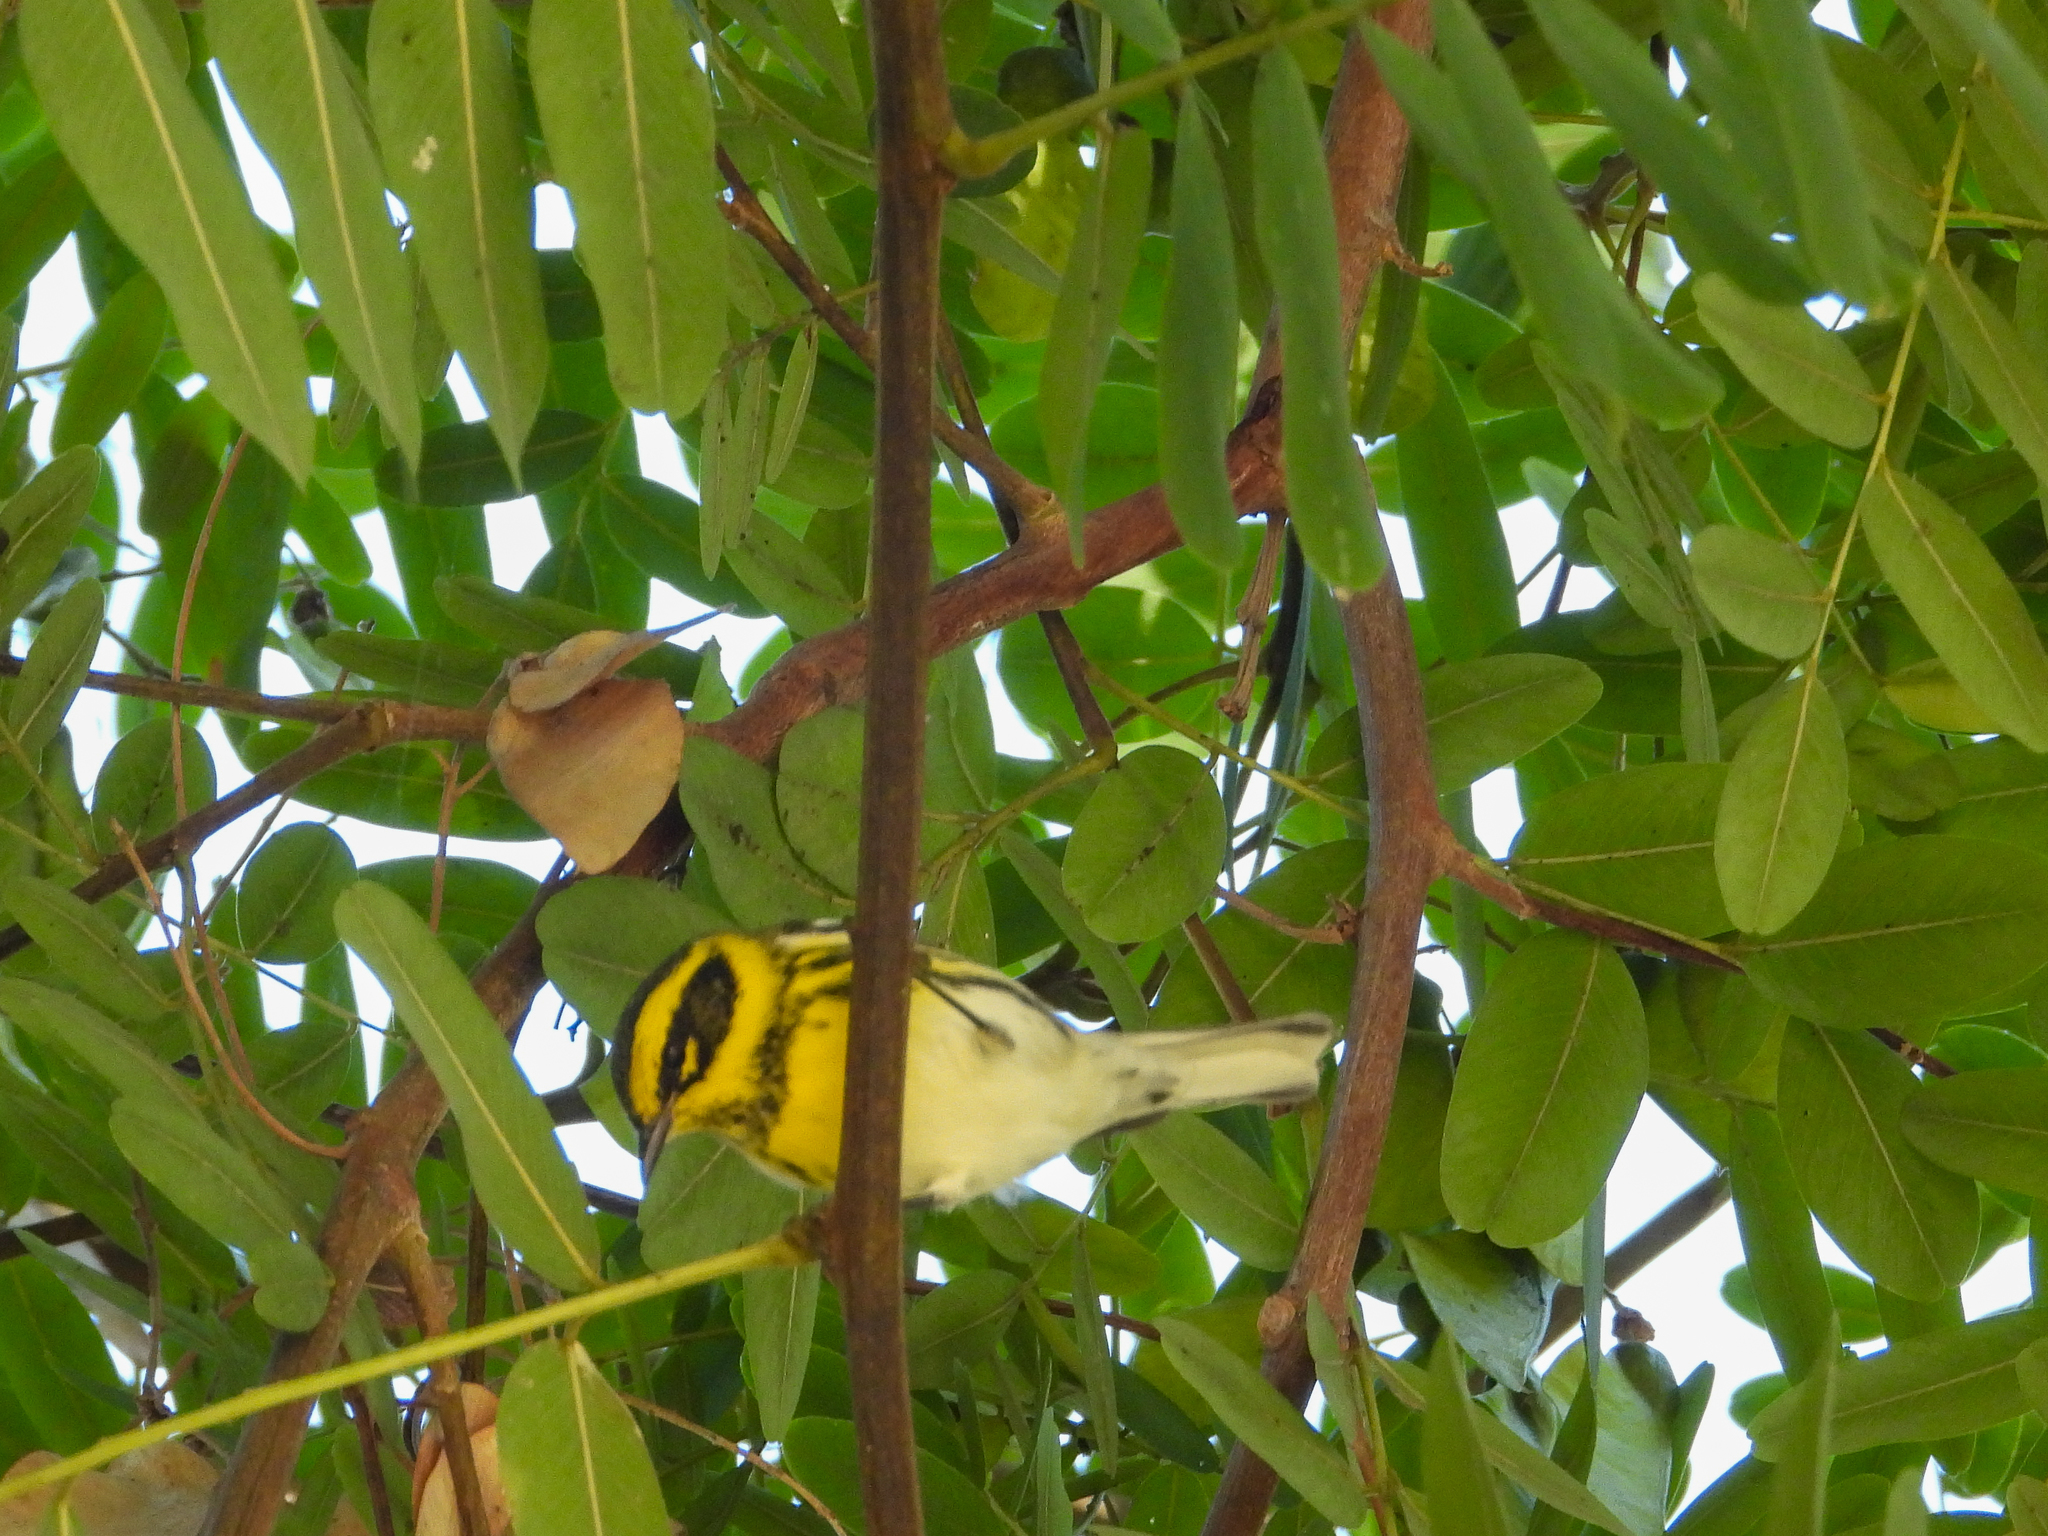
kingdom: Animalia
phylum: Chordata
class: Aves
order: Passeriformes
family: Parulidae
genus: Setophaga
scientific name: Setophaga townsendi
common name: Townsend's warbler
